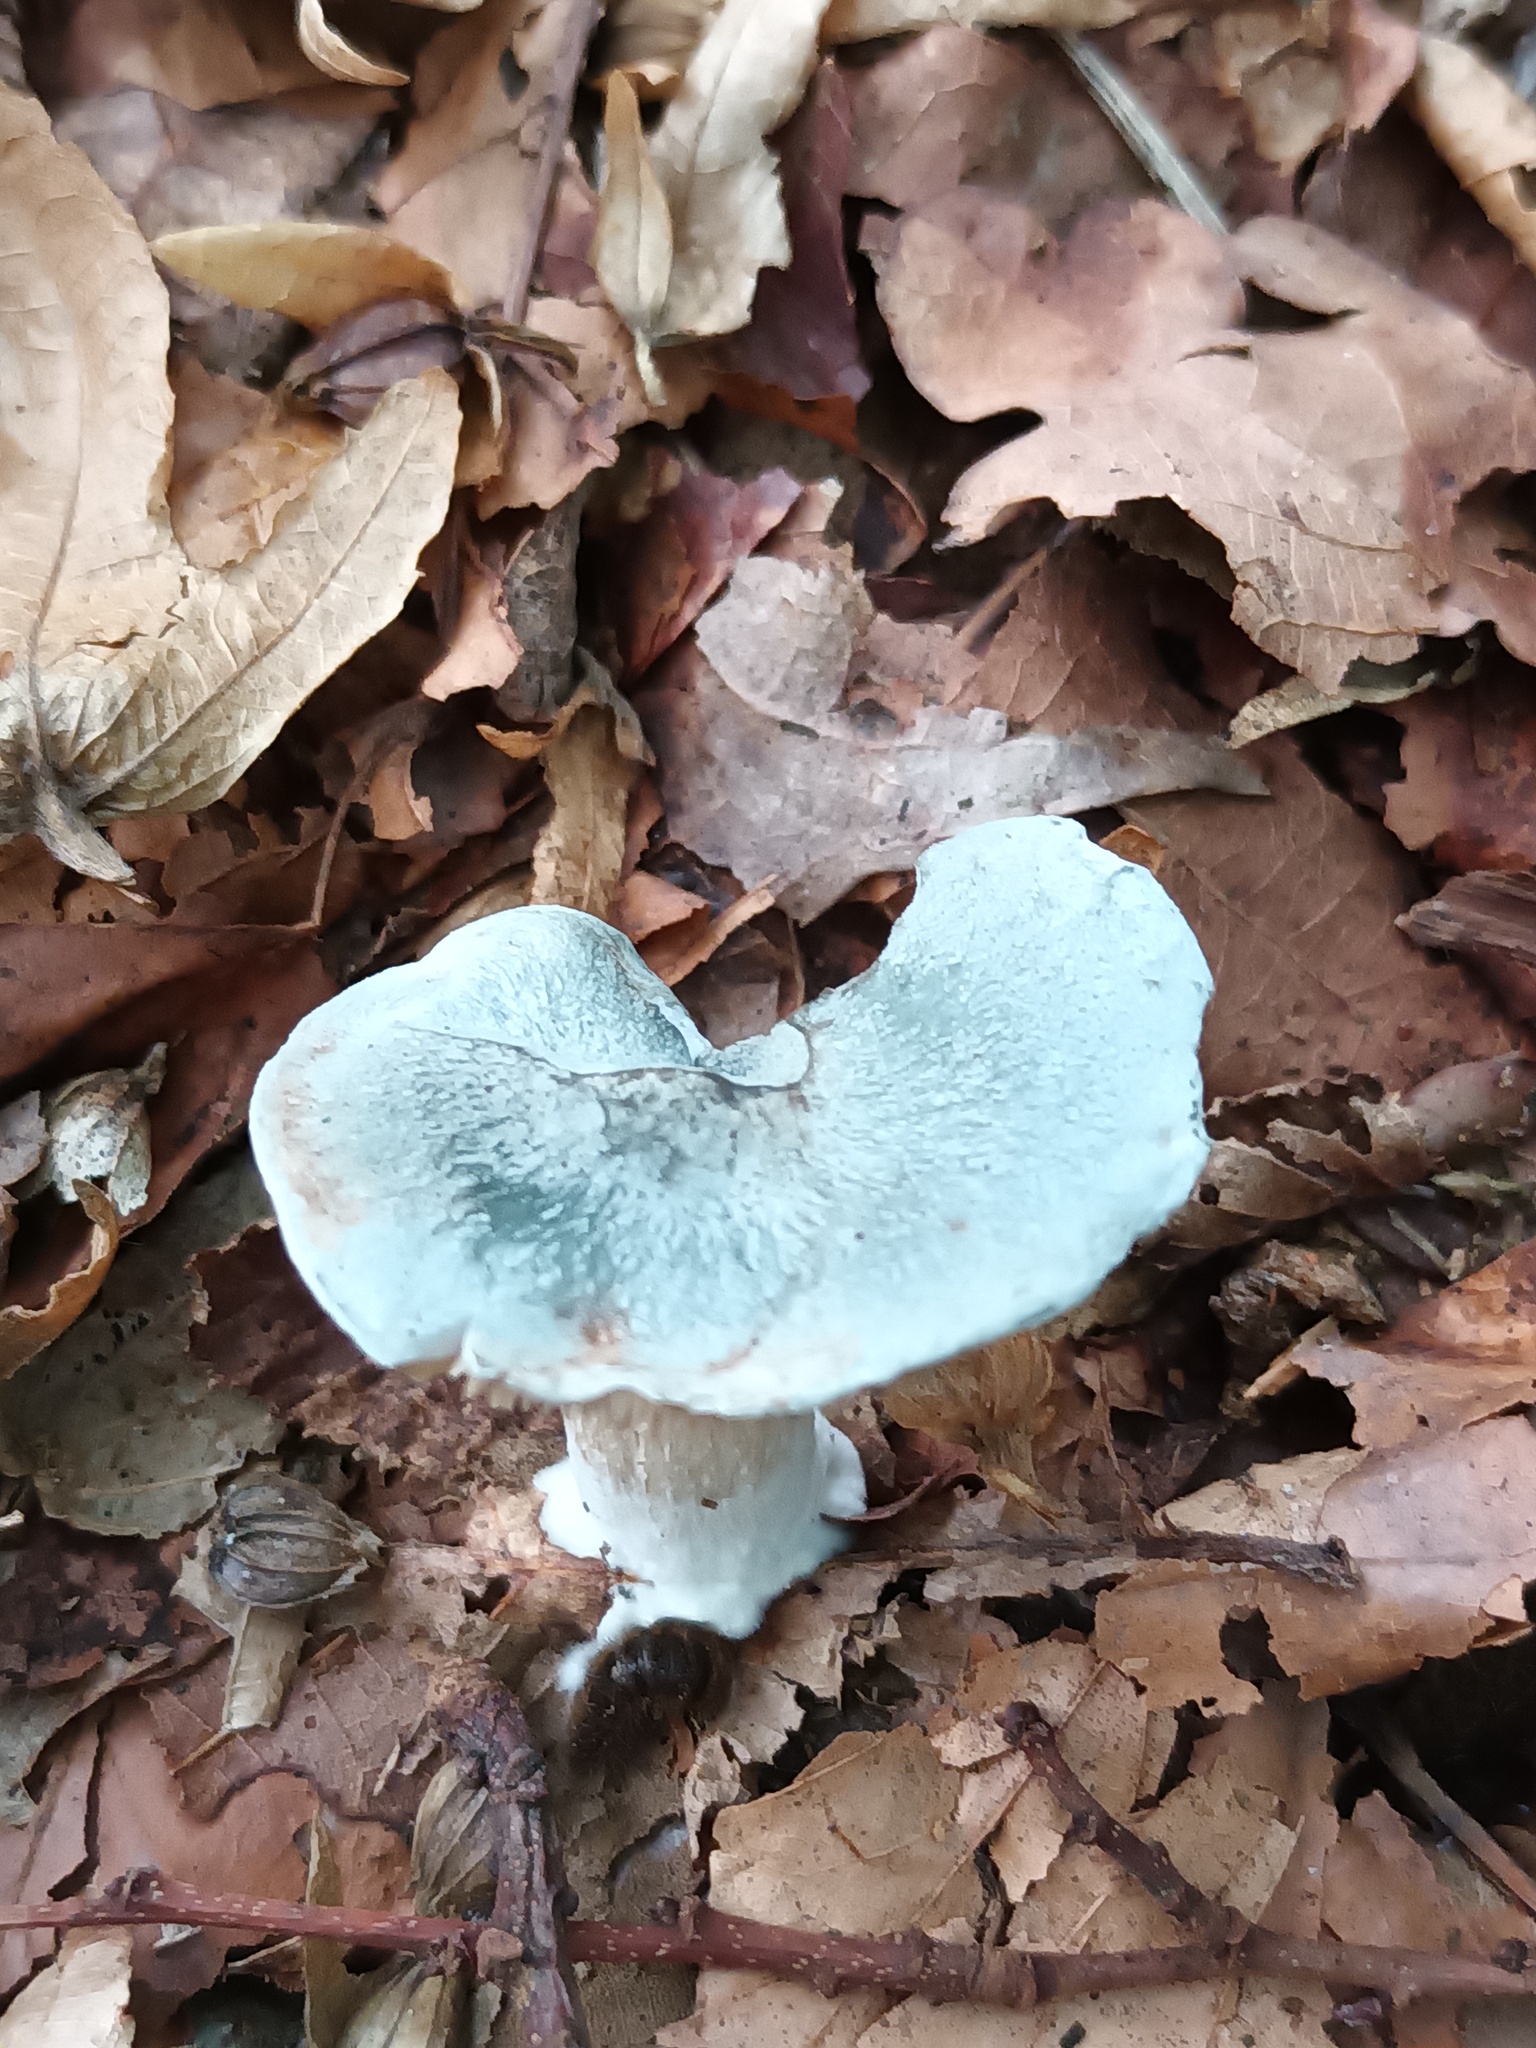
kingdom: Fungi
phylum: Basidiomycota
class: Agaricomycetes
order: Agaricales
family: Tricholomataceae
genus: Collybia
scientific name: Collybia
